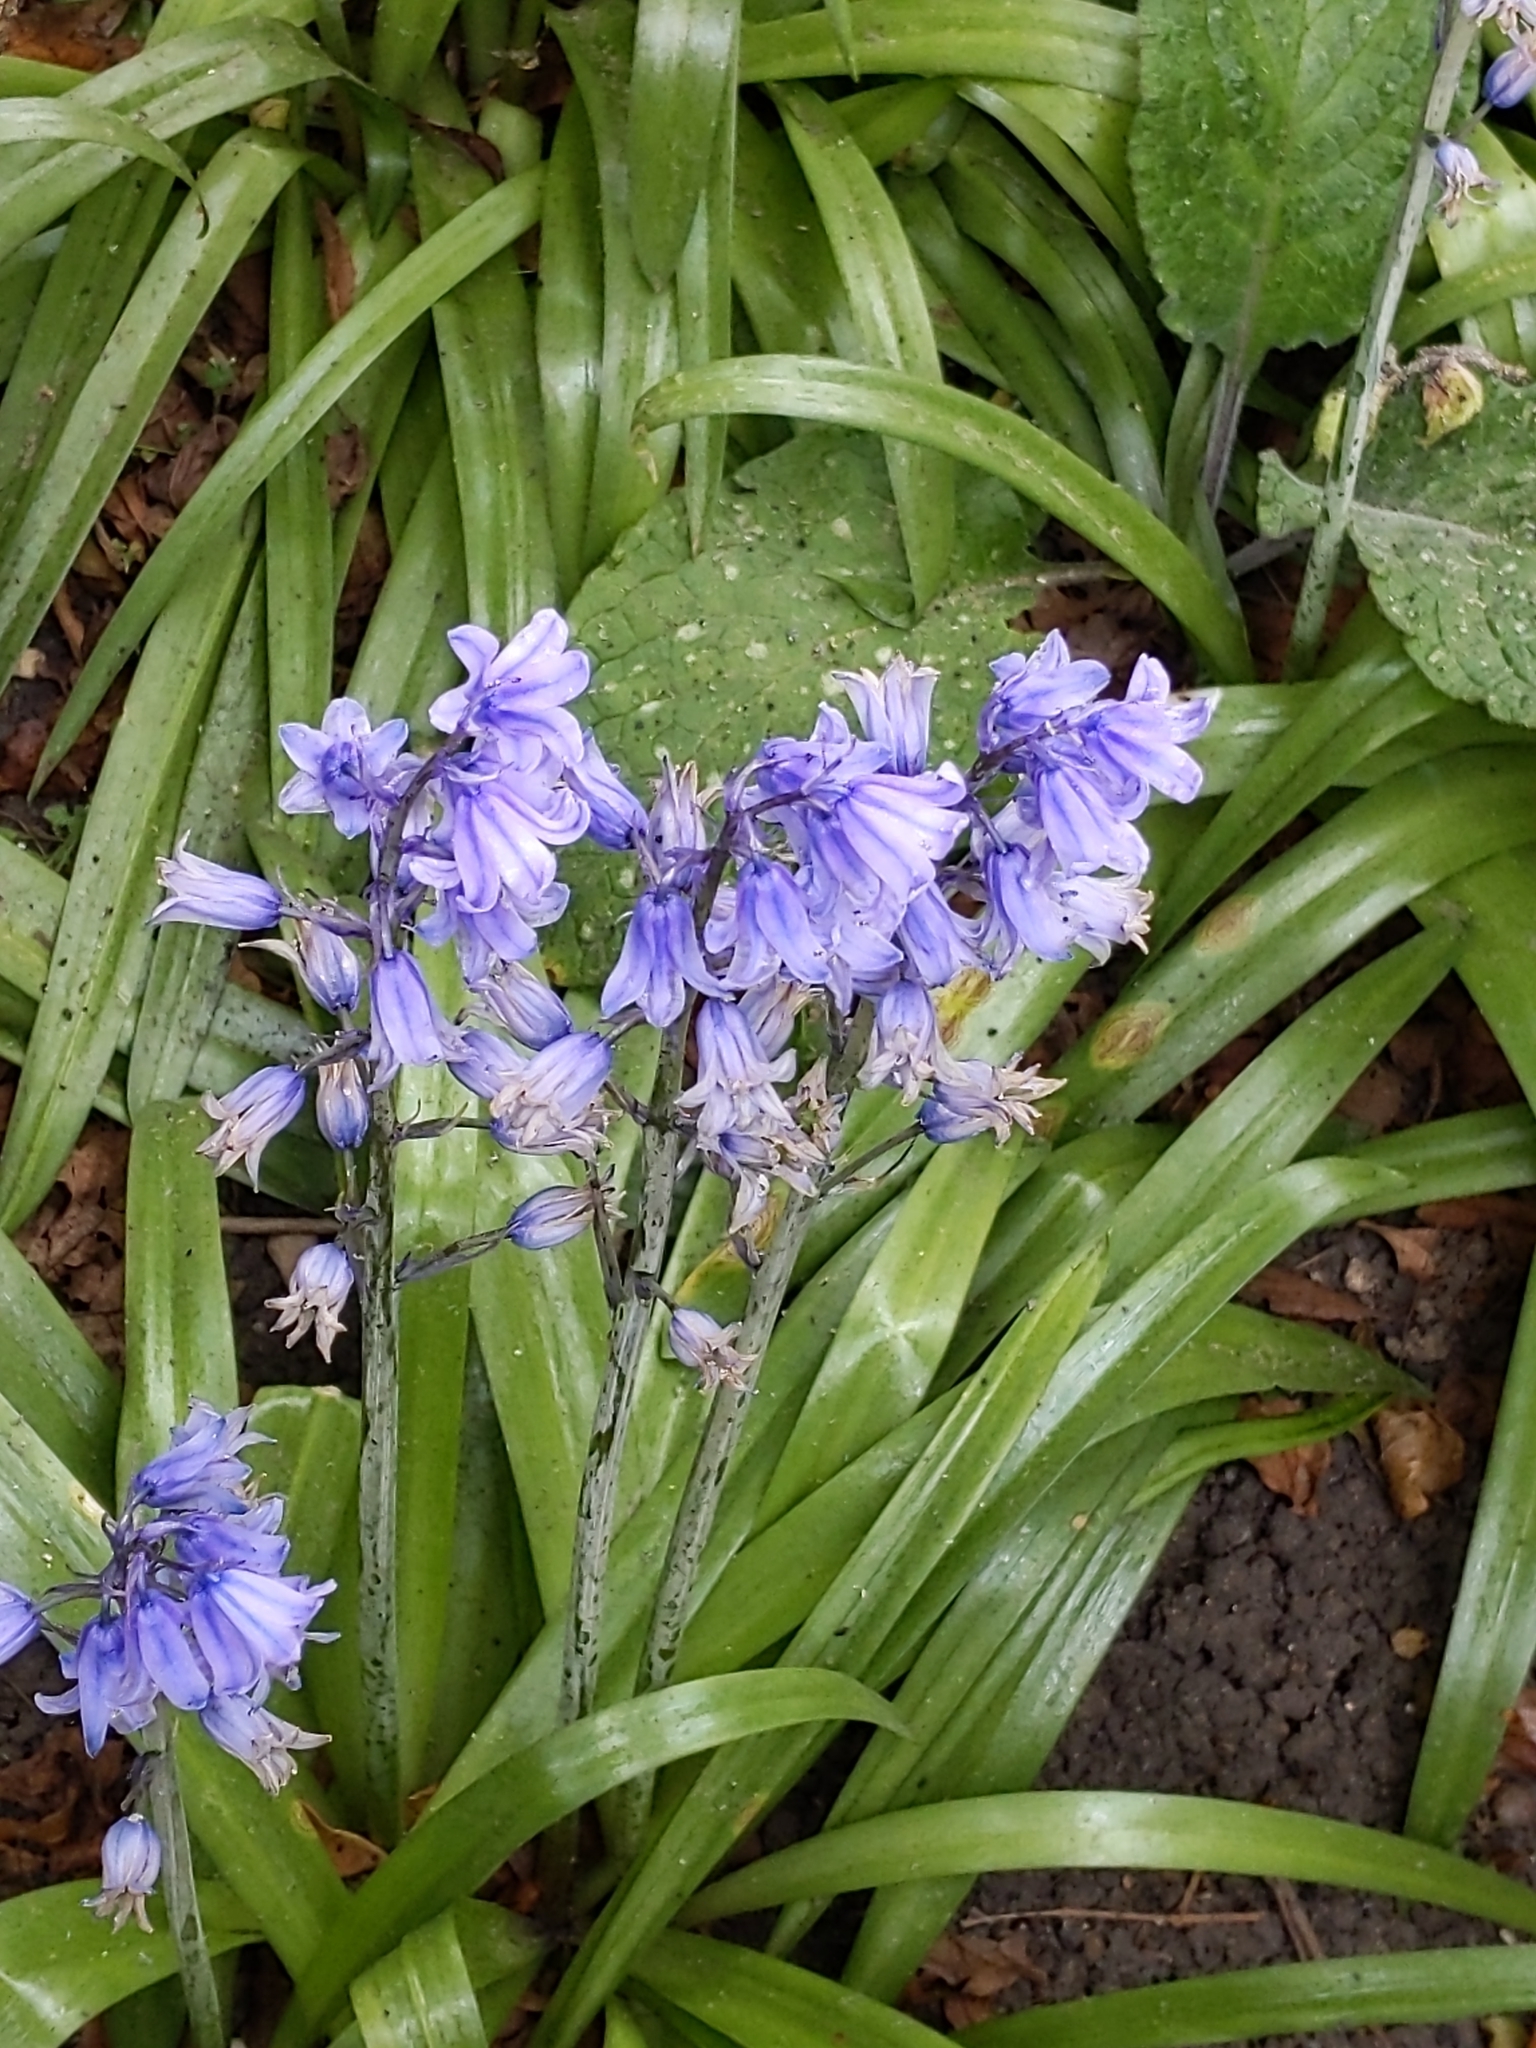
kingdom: Plantae
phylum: Tracheophyta
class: Liliopsida
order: Asparagales
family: Asparagaceae
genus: Hyacinthoides
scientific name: Hyacinthoides massartiana
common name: Hyacinthoides
